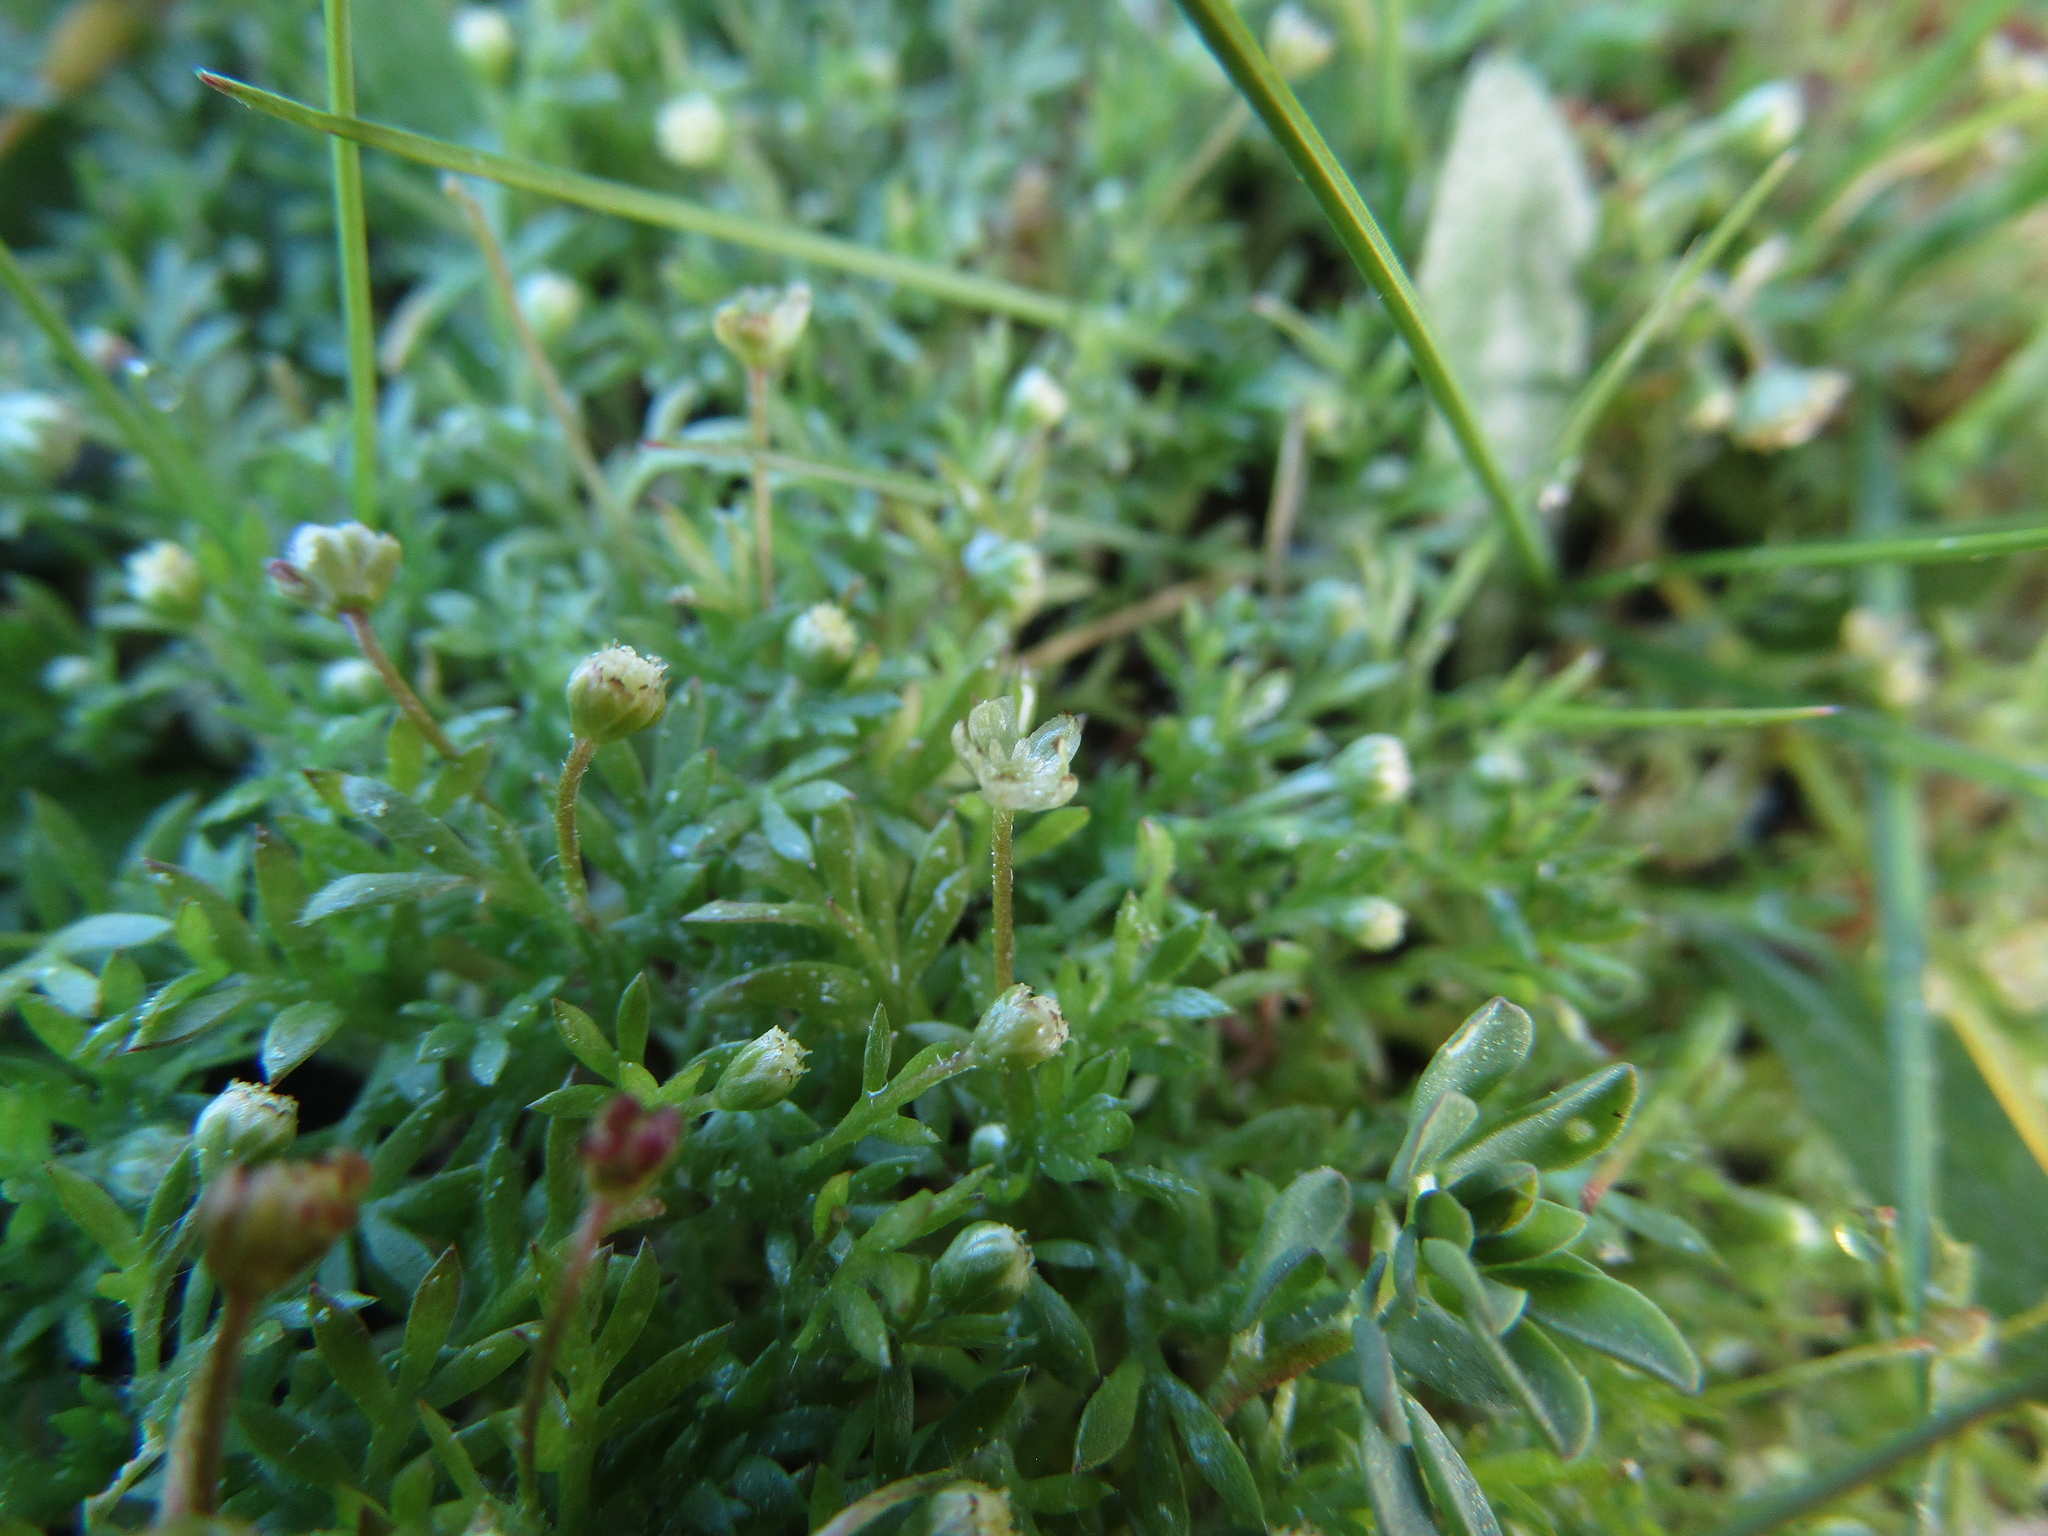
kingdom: Plantae
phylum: Tracheophyta
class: Magnoliopsida
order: Asterales
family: Asteraceae
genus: Cotula
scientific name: Cotula australis
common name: Australian waterbuttons
